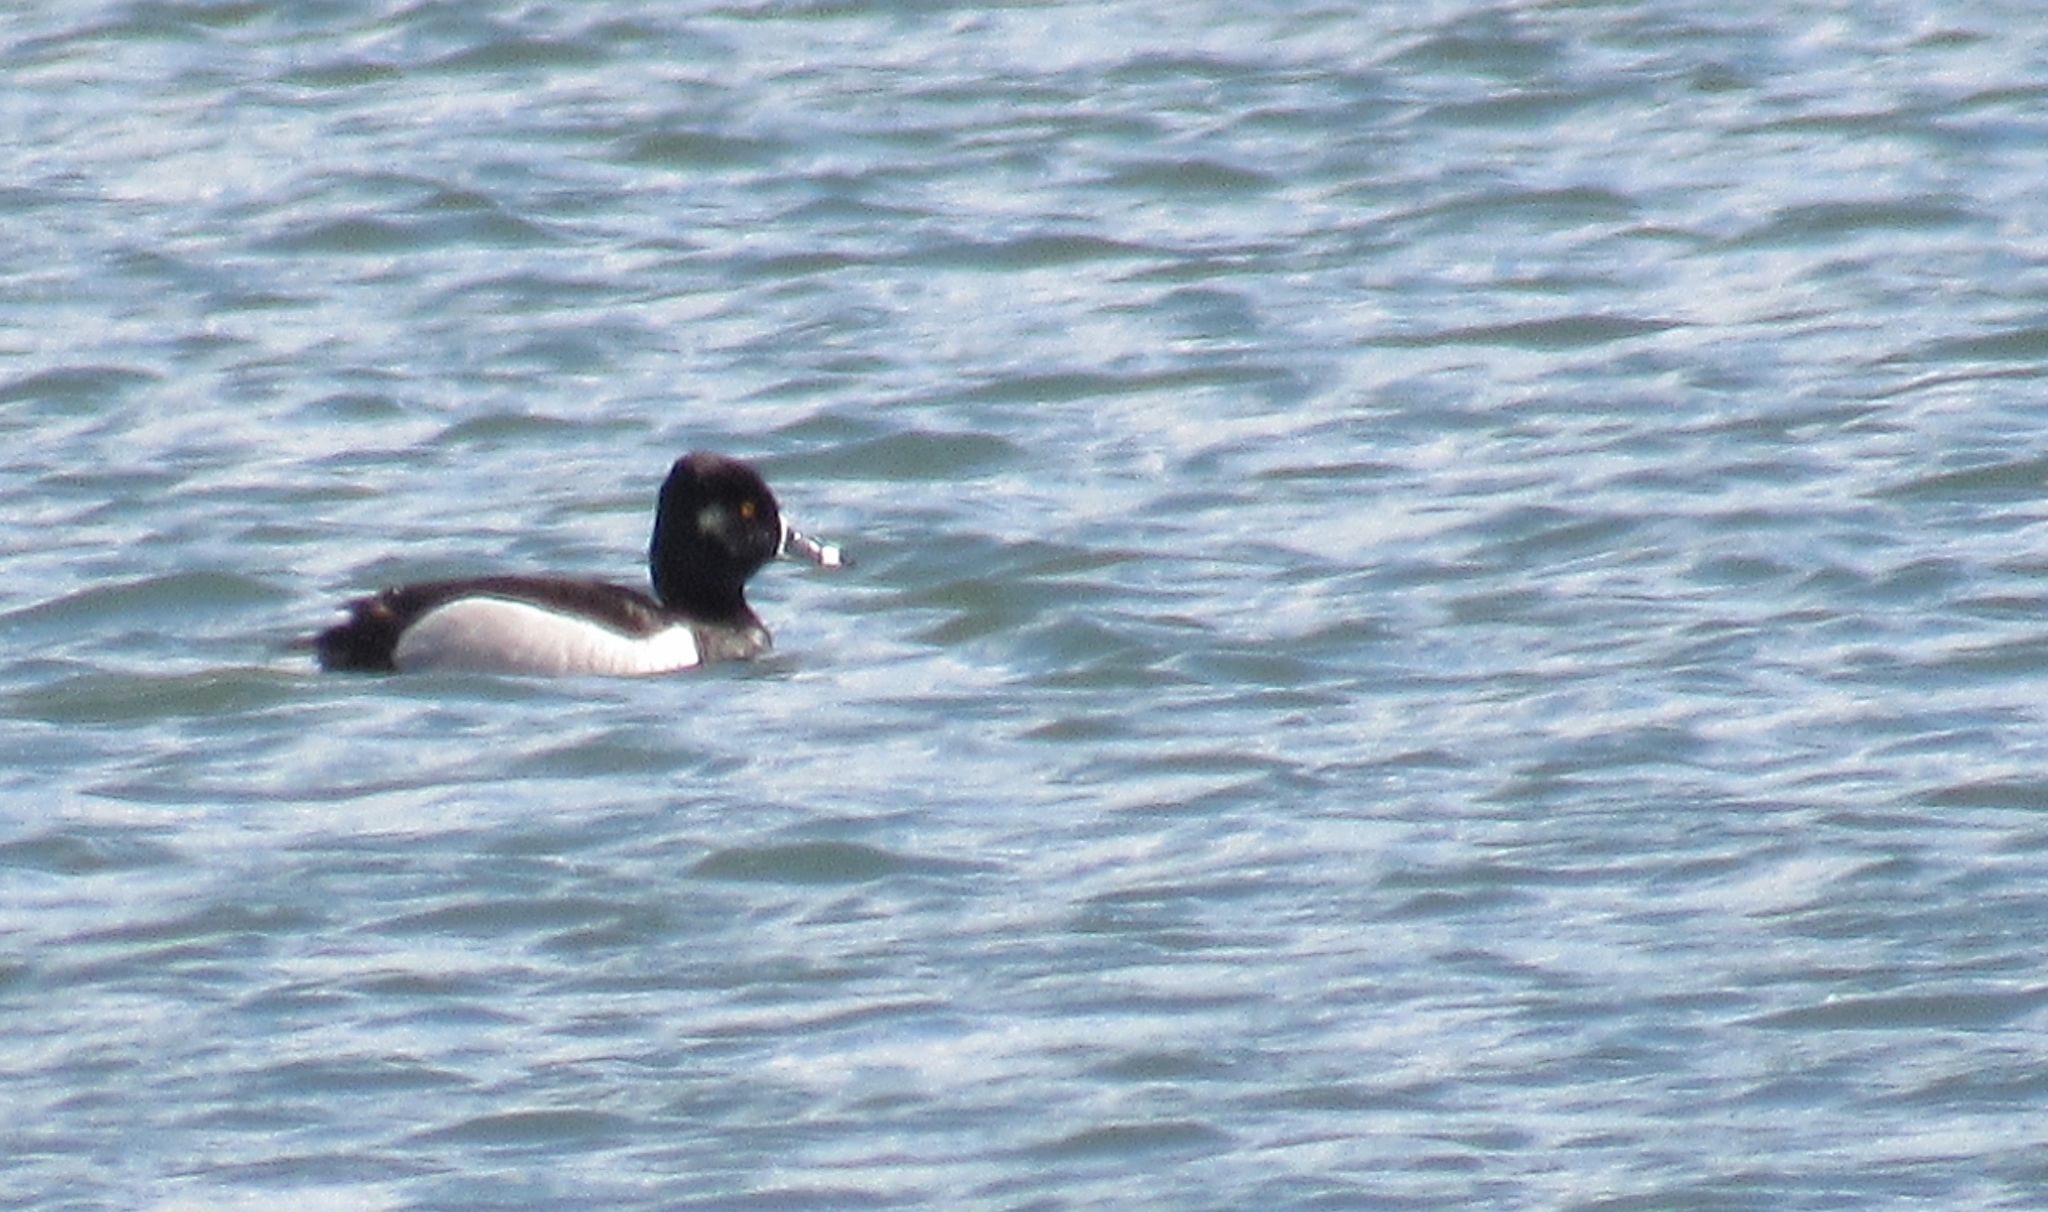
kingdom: Animalia
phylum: Chordata
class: Aves
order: Anseriformes
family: Anatidae
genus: Aythya
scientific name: Aythya collaris
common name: Ring-necked duck
